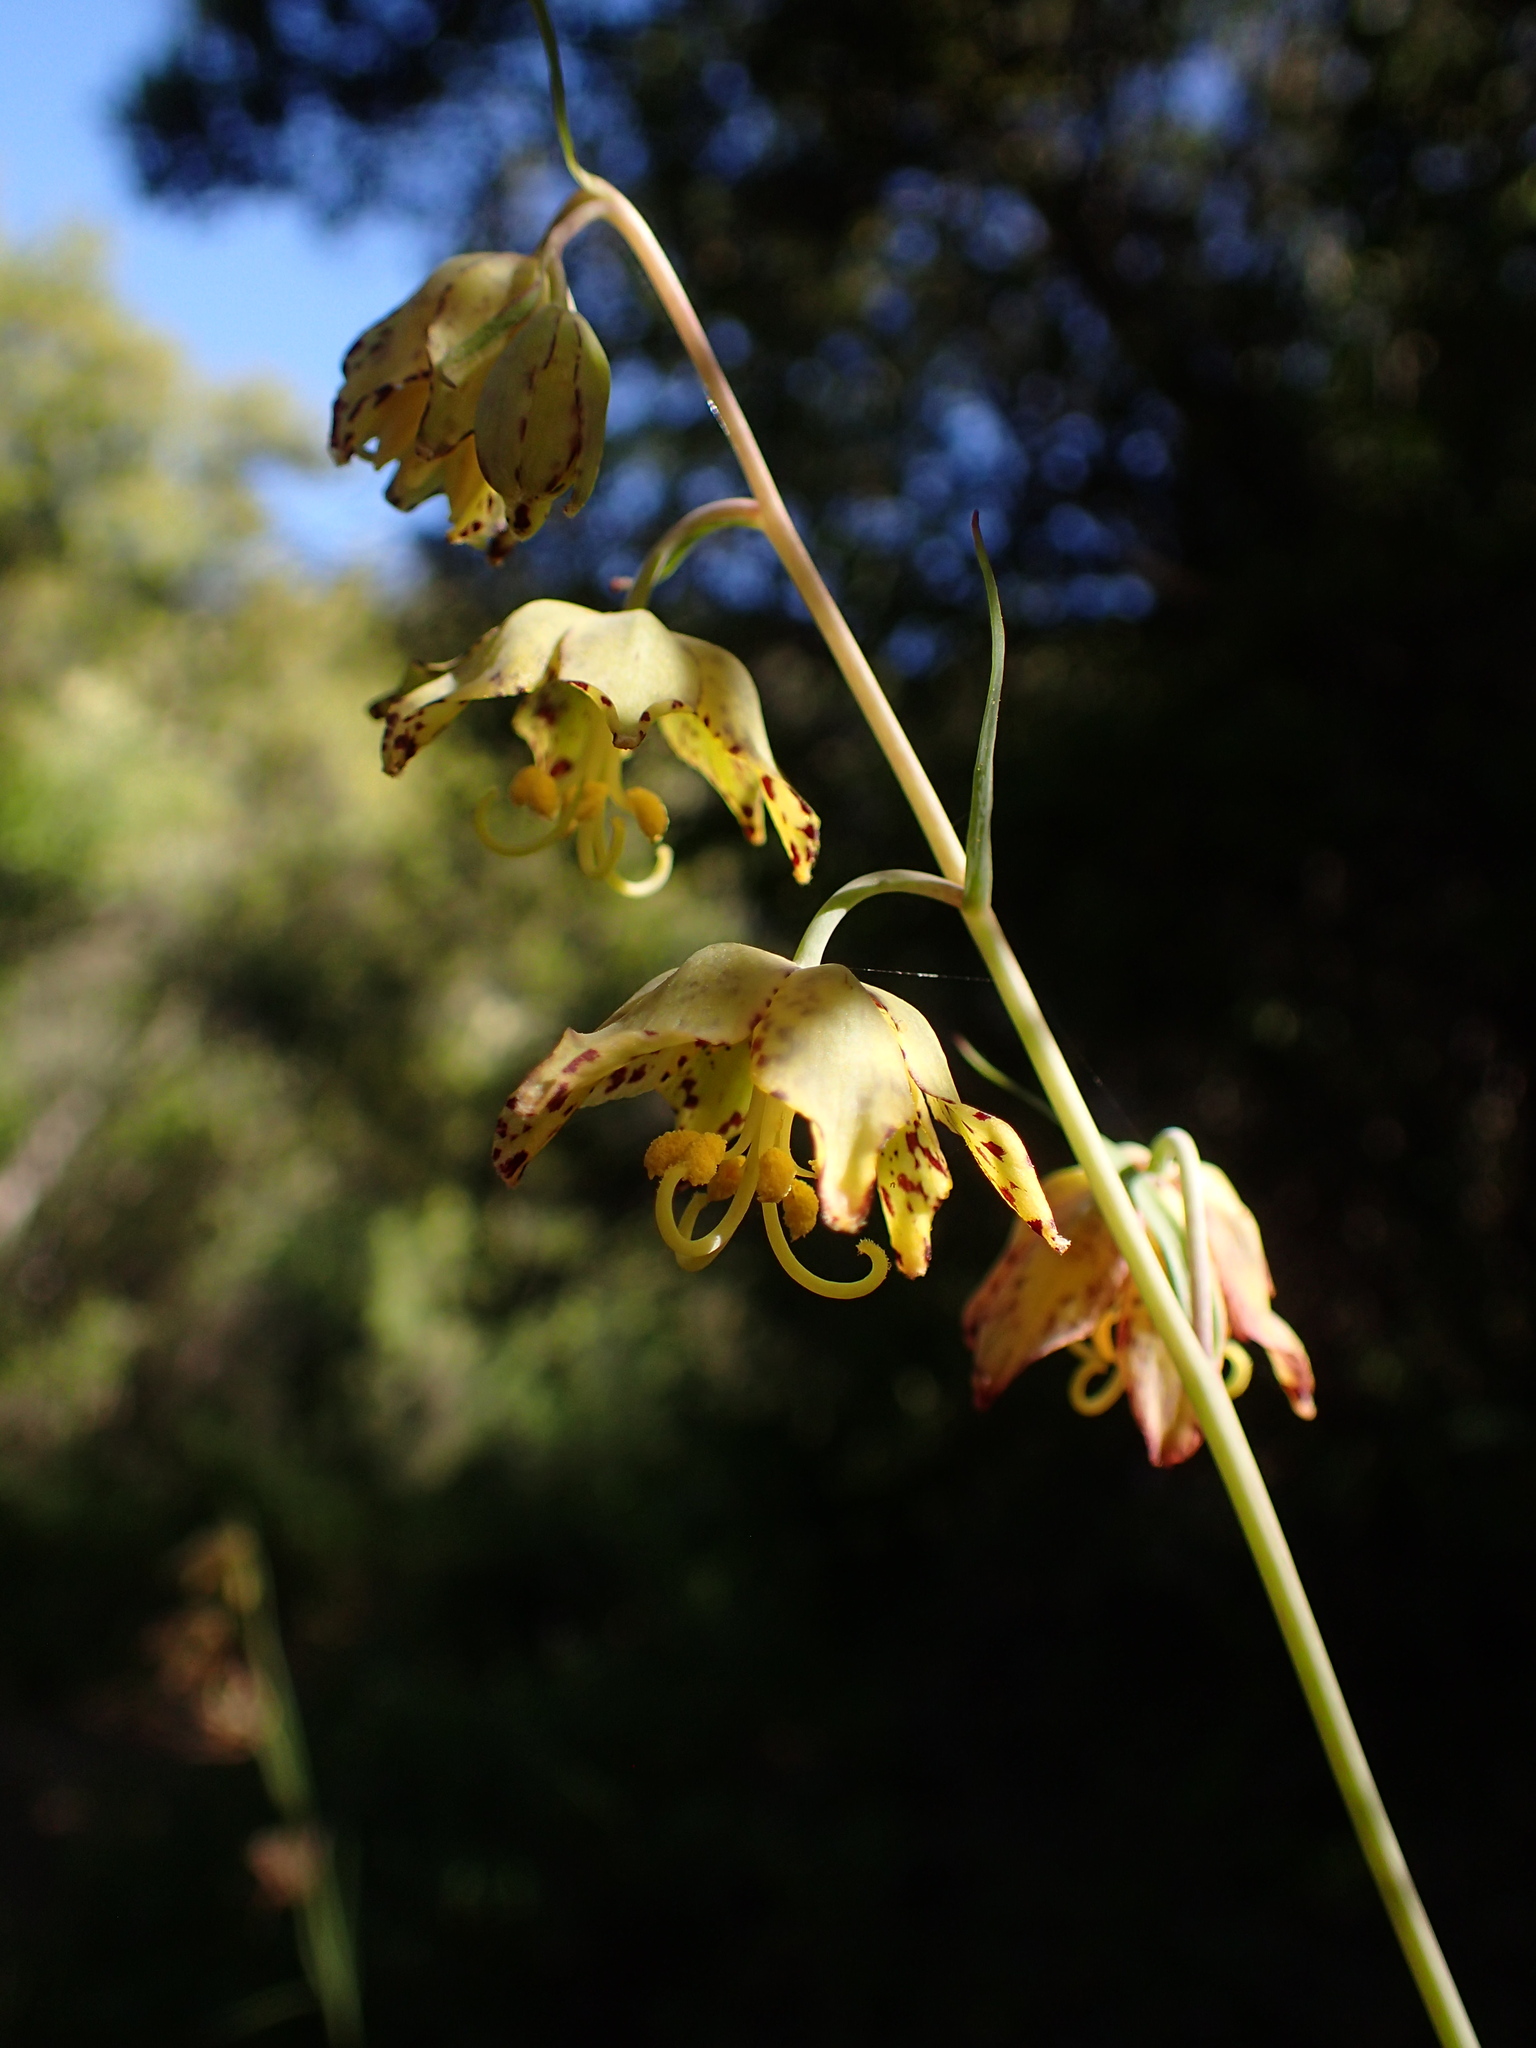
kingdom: Plantae
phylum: Tracheophyta
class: Liliopsida
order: Liliales
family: Liliaceae
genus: Fritillaria
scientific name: Fritillaria ojaiensis
